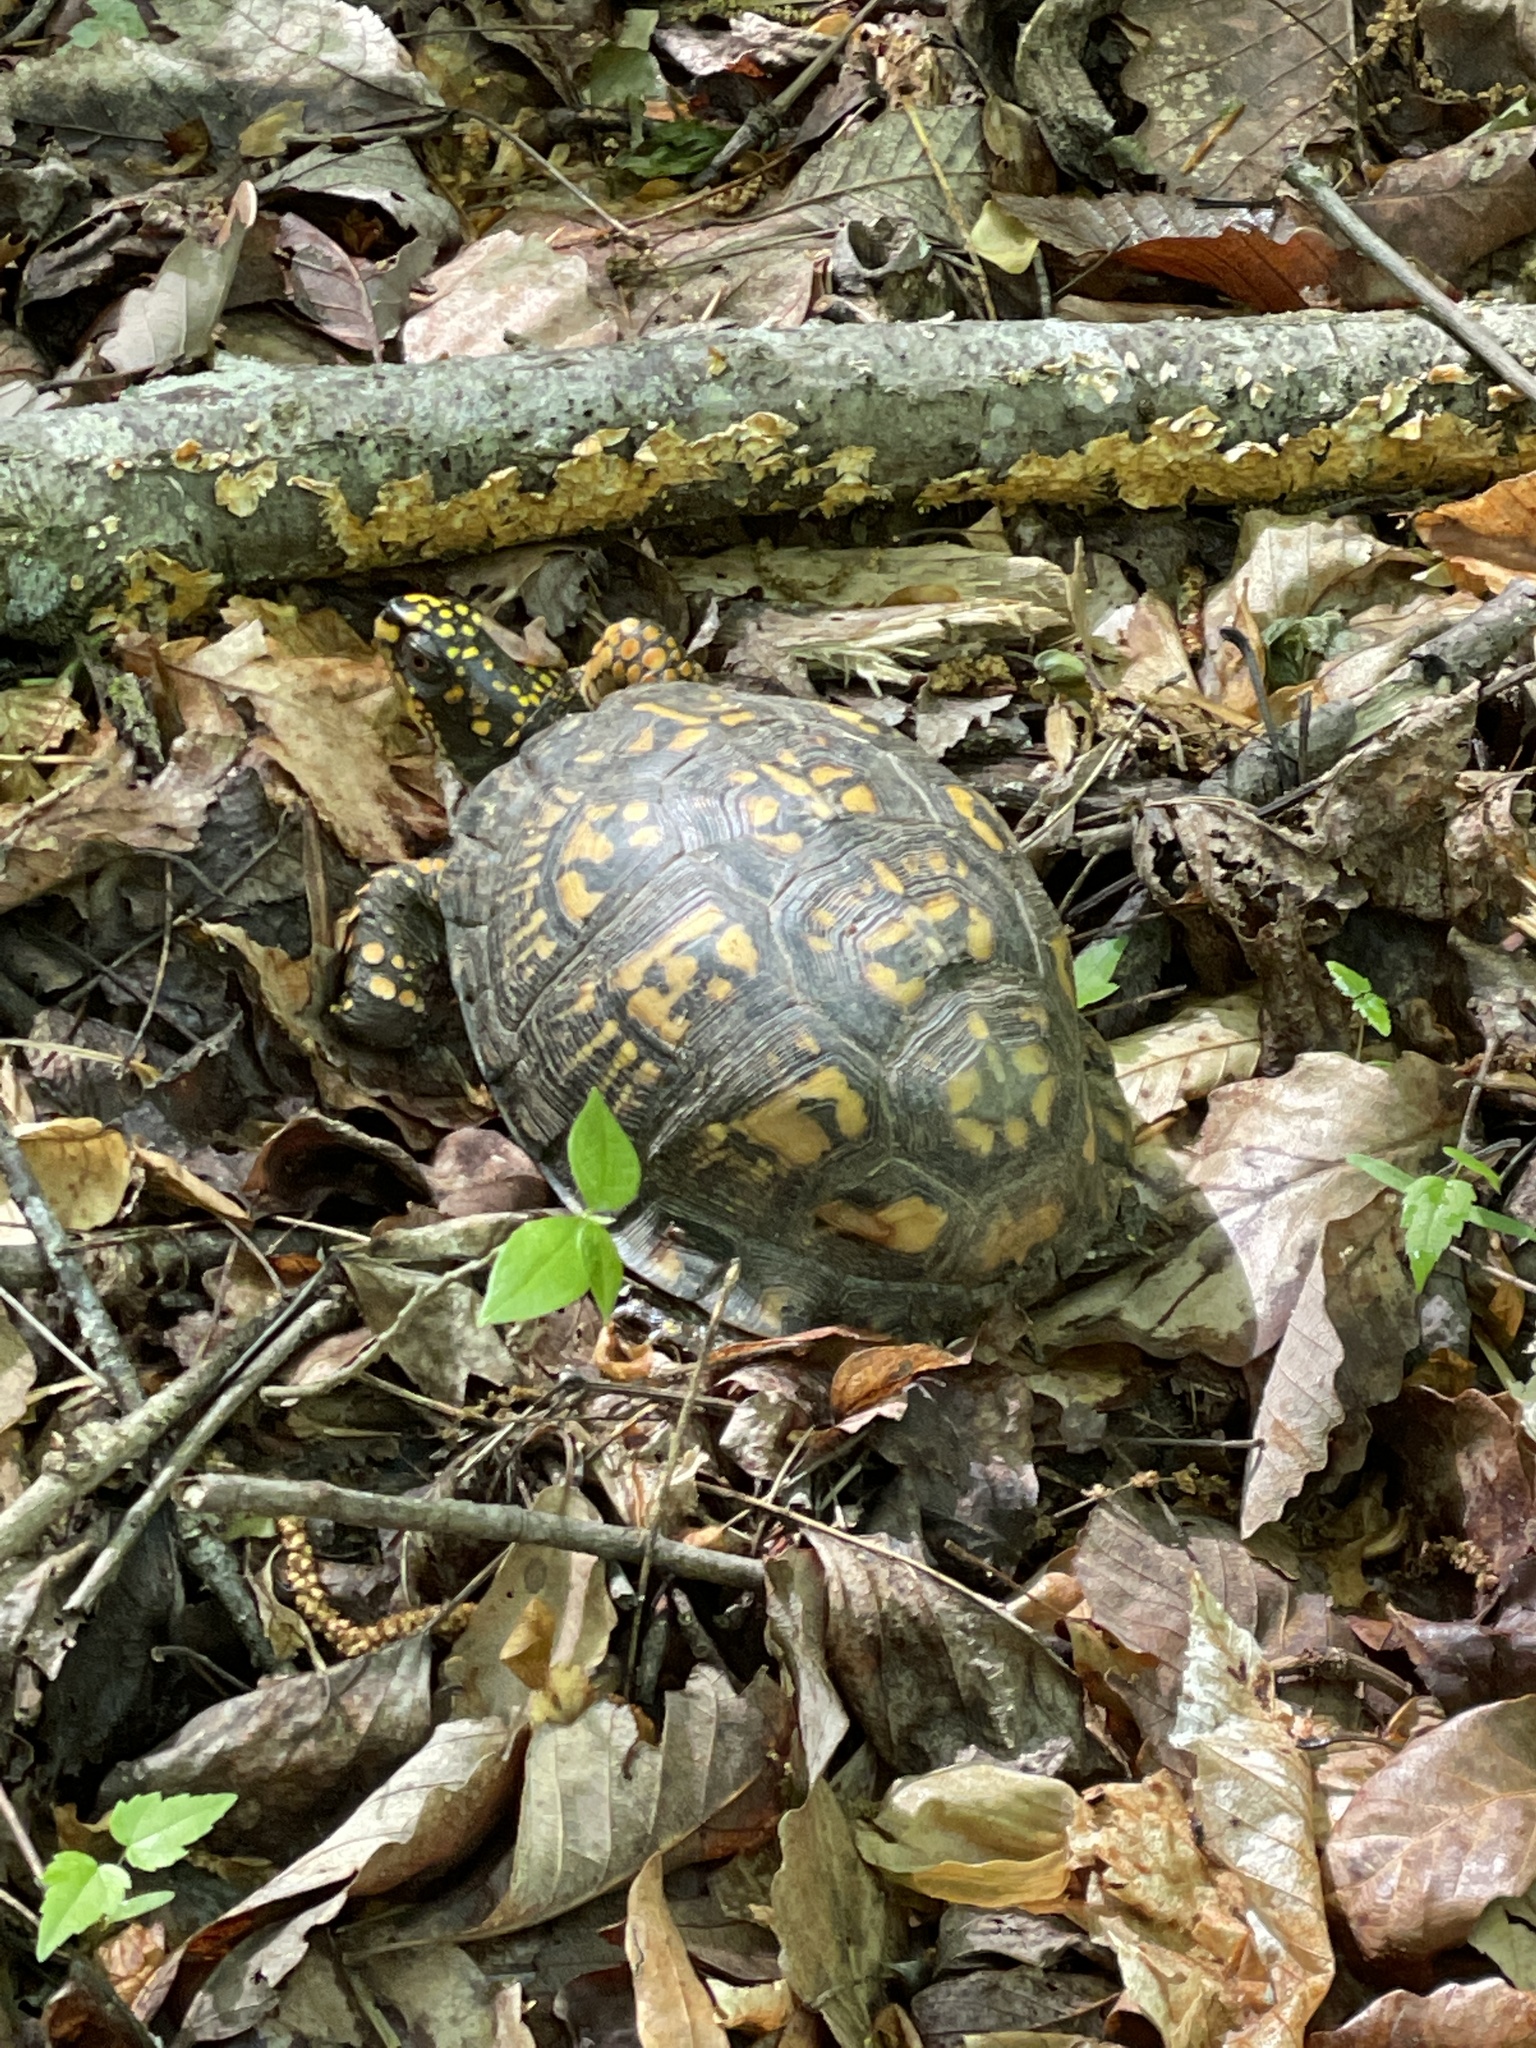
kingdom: Animalia
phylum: Chordata
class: Testudines
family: Emydidae
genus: Terrapene
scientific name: Terrapene carolina
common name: Common box turtle
